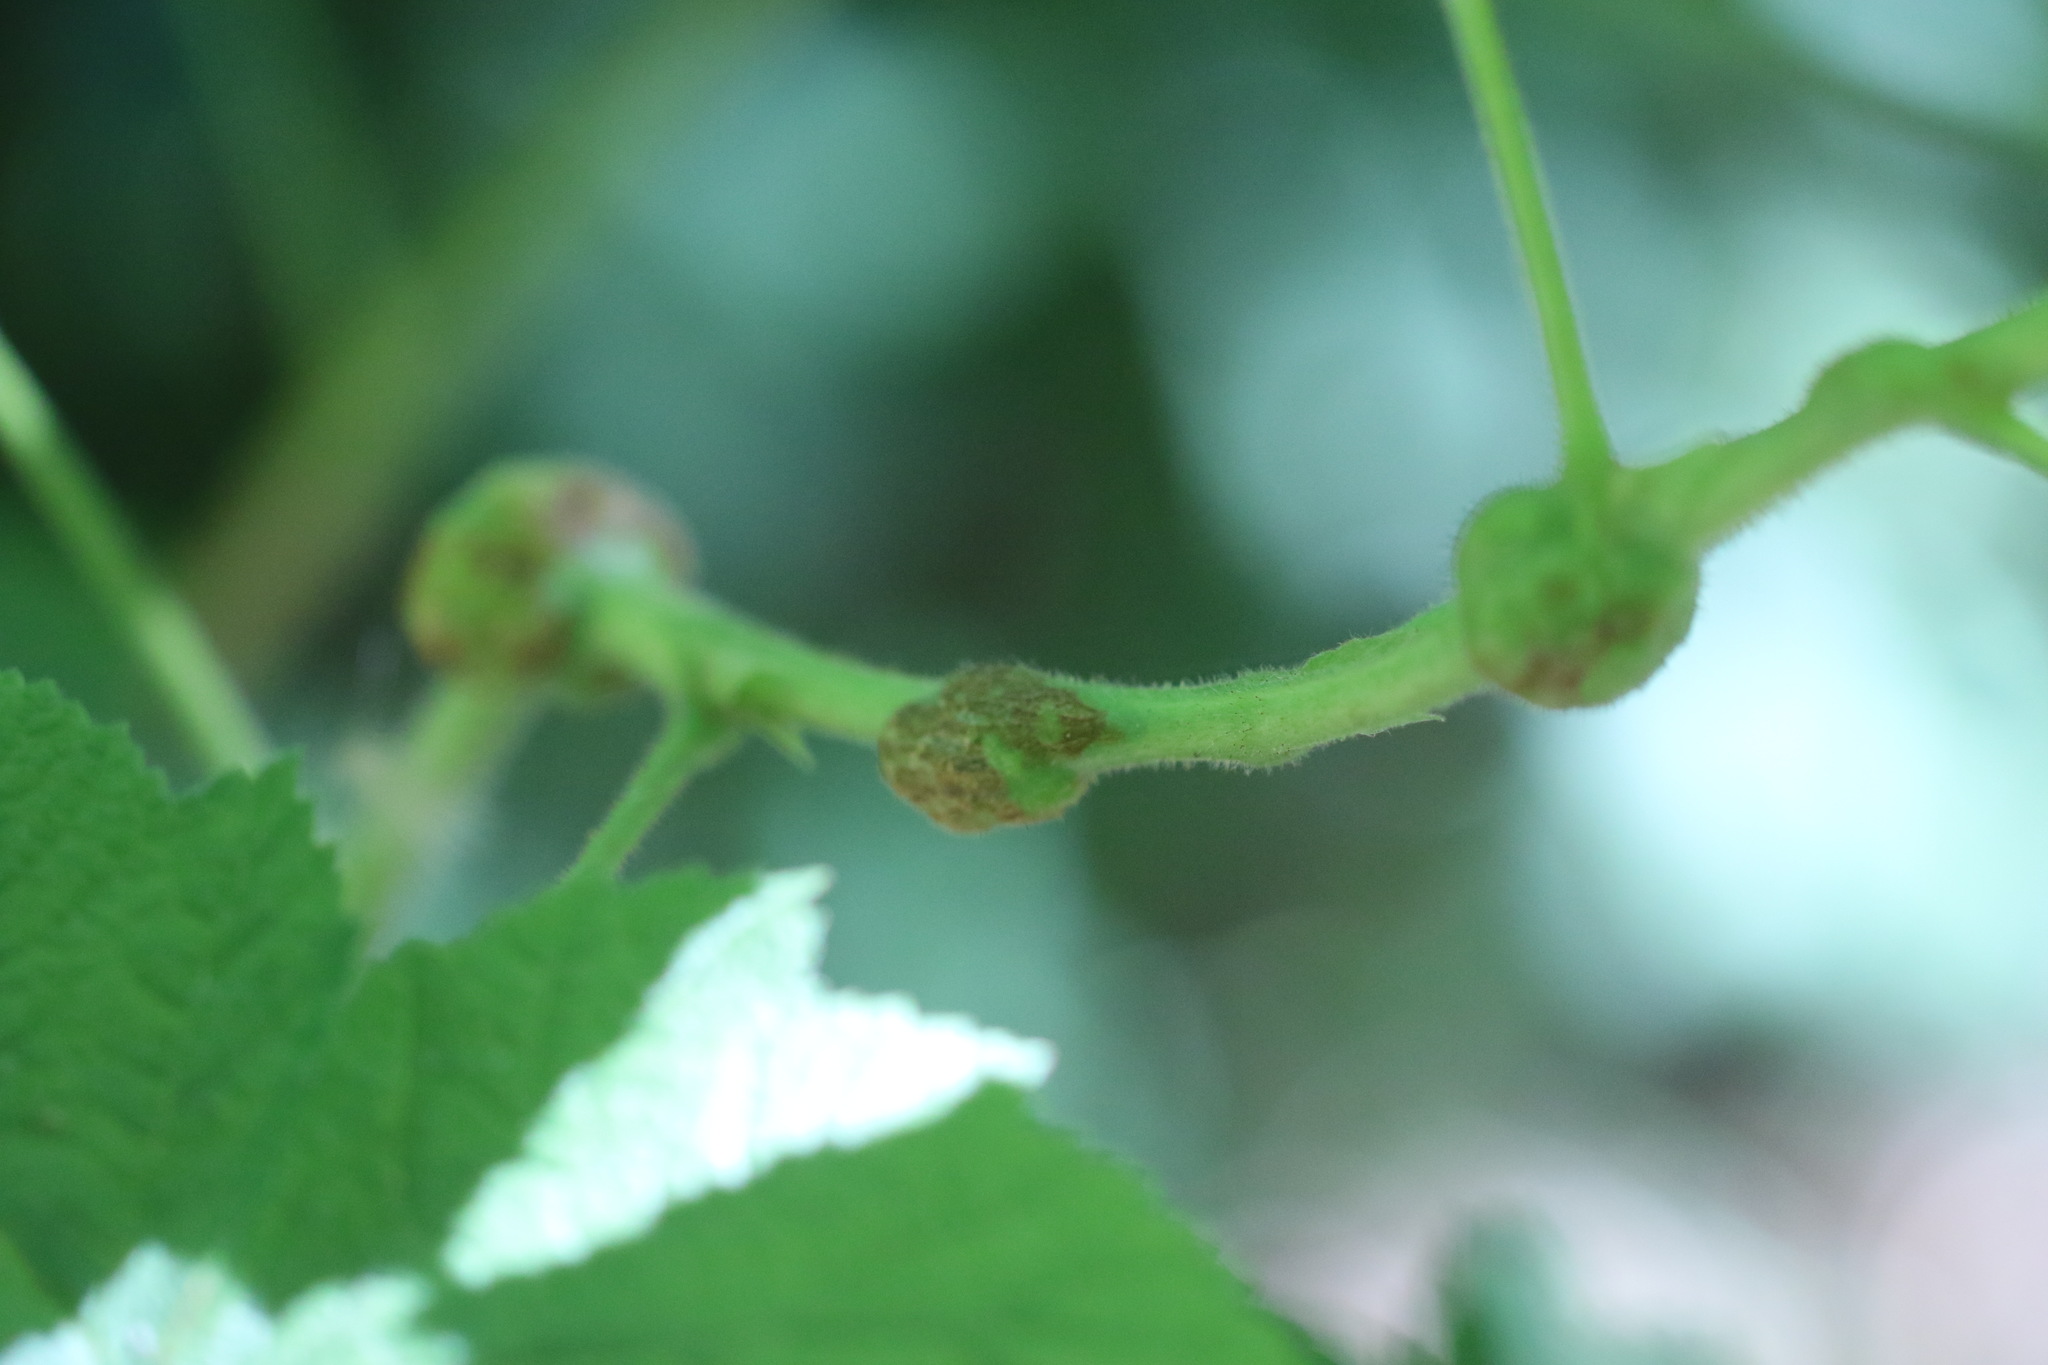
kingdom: Plantae
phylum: Tracheophyta
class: Magnoliopsida
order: Rosales
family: Rosaceae
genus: Rubus
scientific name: Rubus parviflorus
